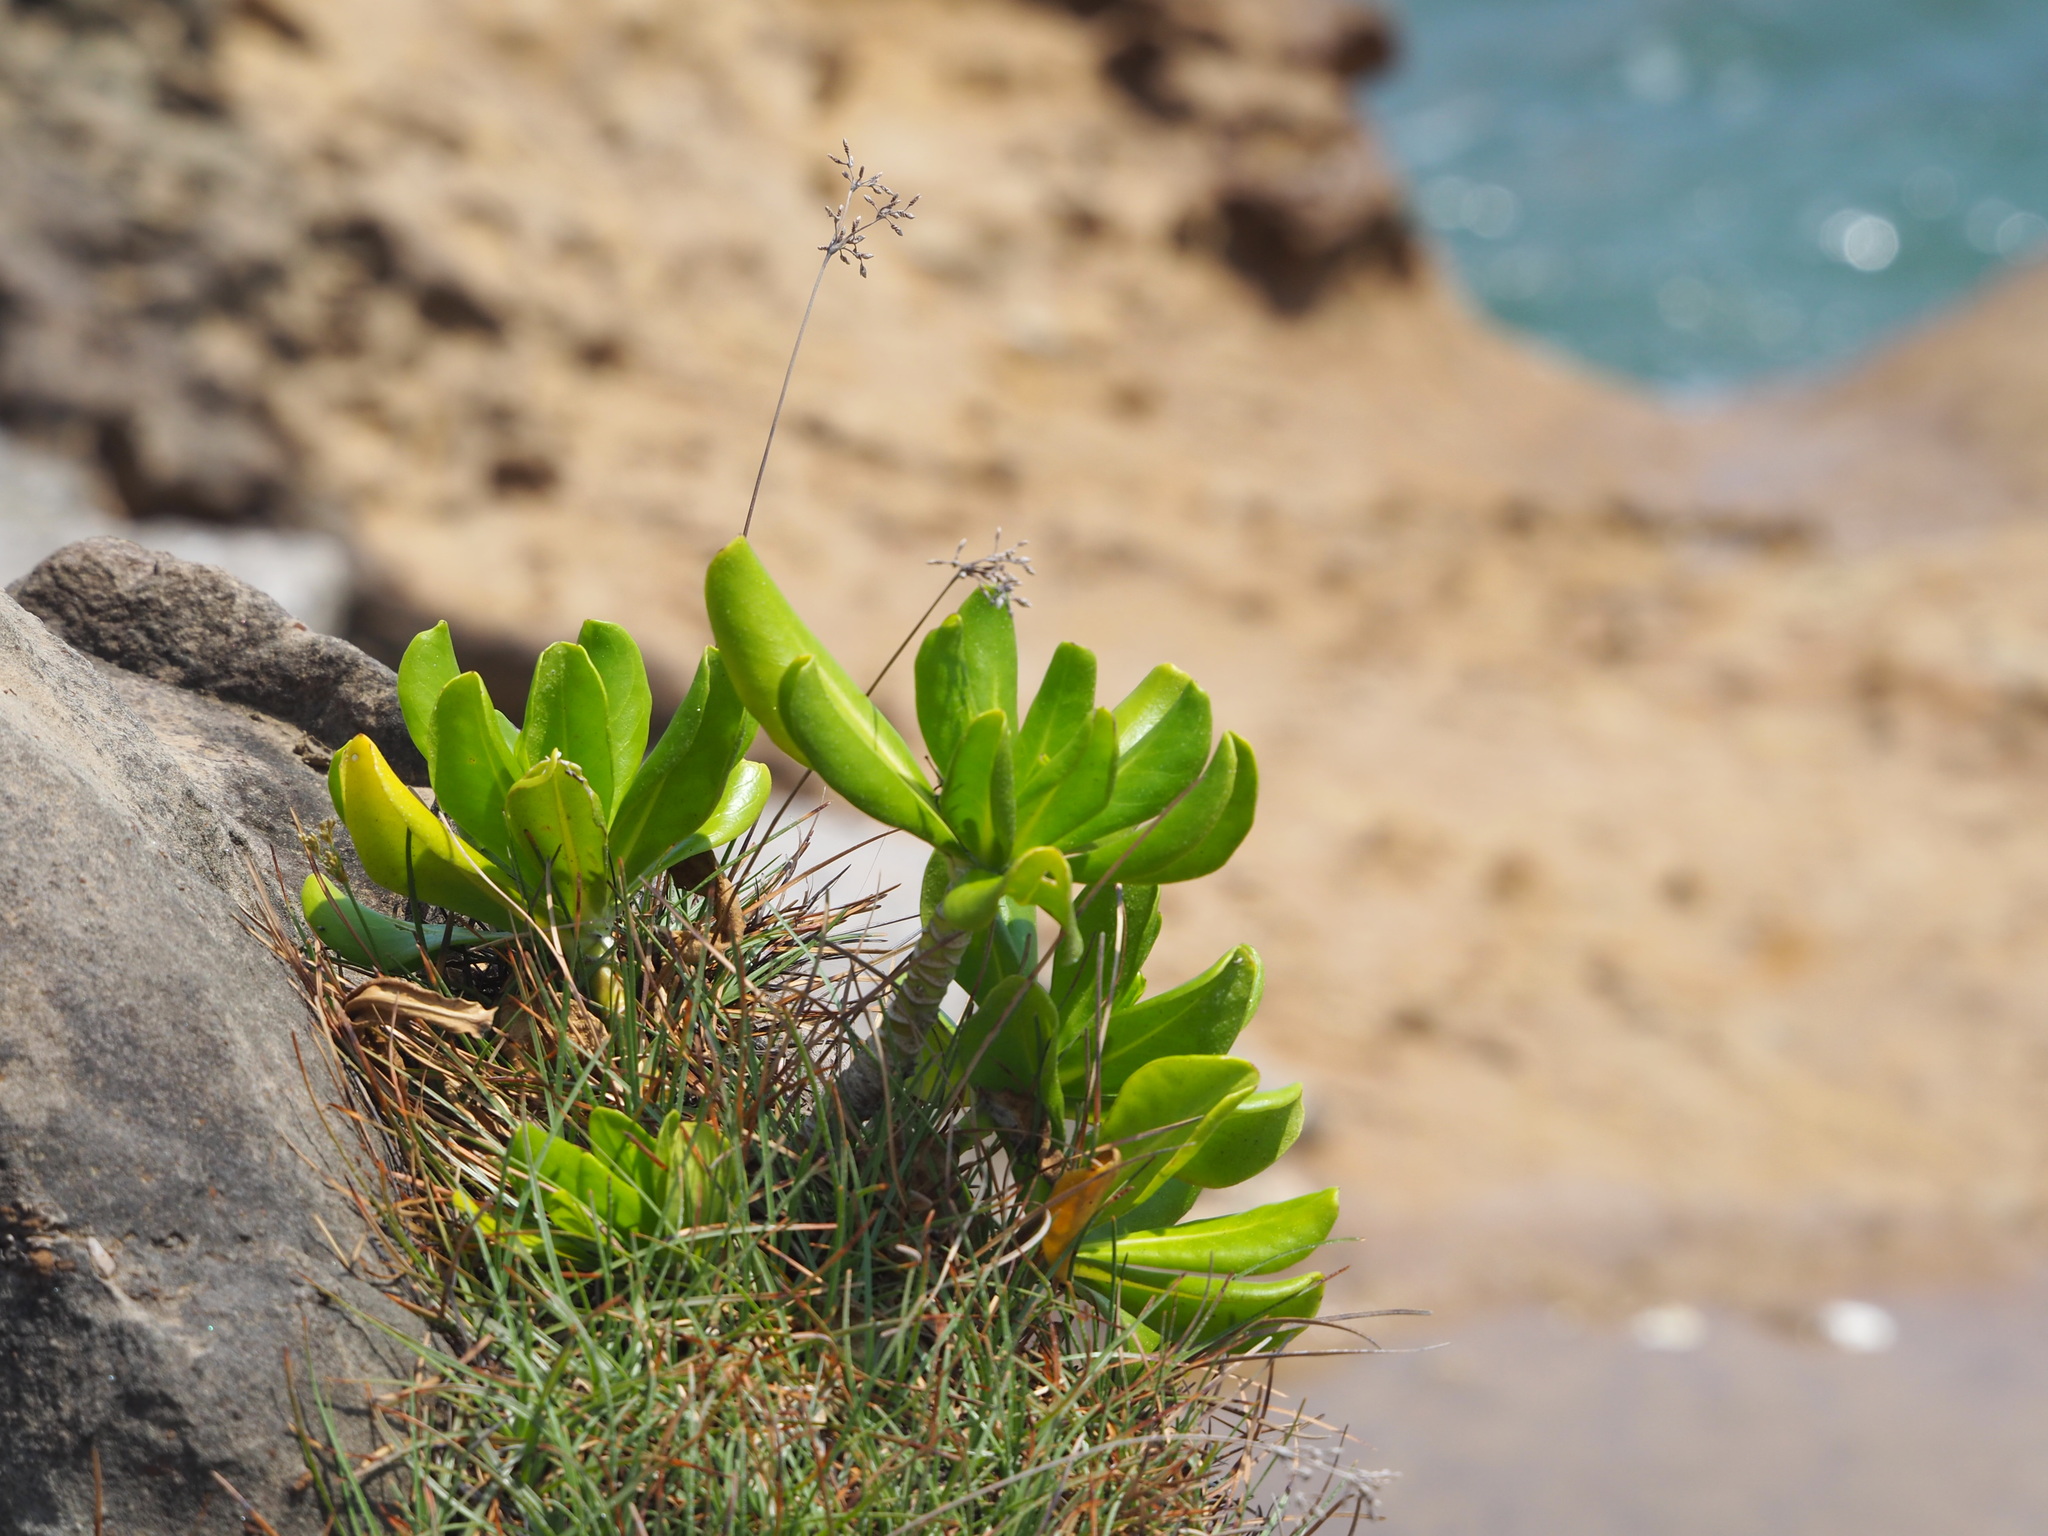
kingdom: Plantae
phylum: Tracheophyta
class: Magnoliopsida
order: Asterales
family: Goodeniaceae
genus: Scaevola
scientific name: Scaevola taccada
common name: Sea lettucetree
